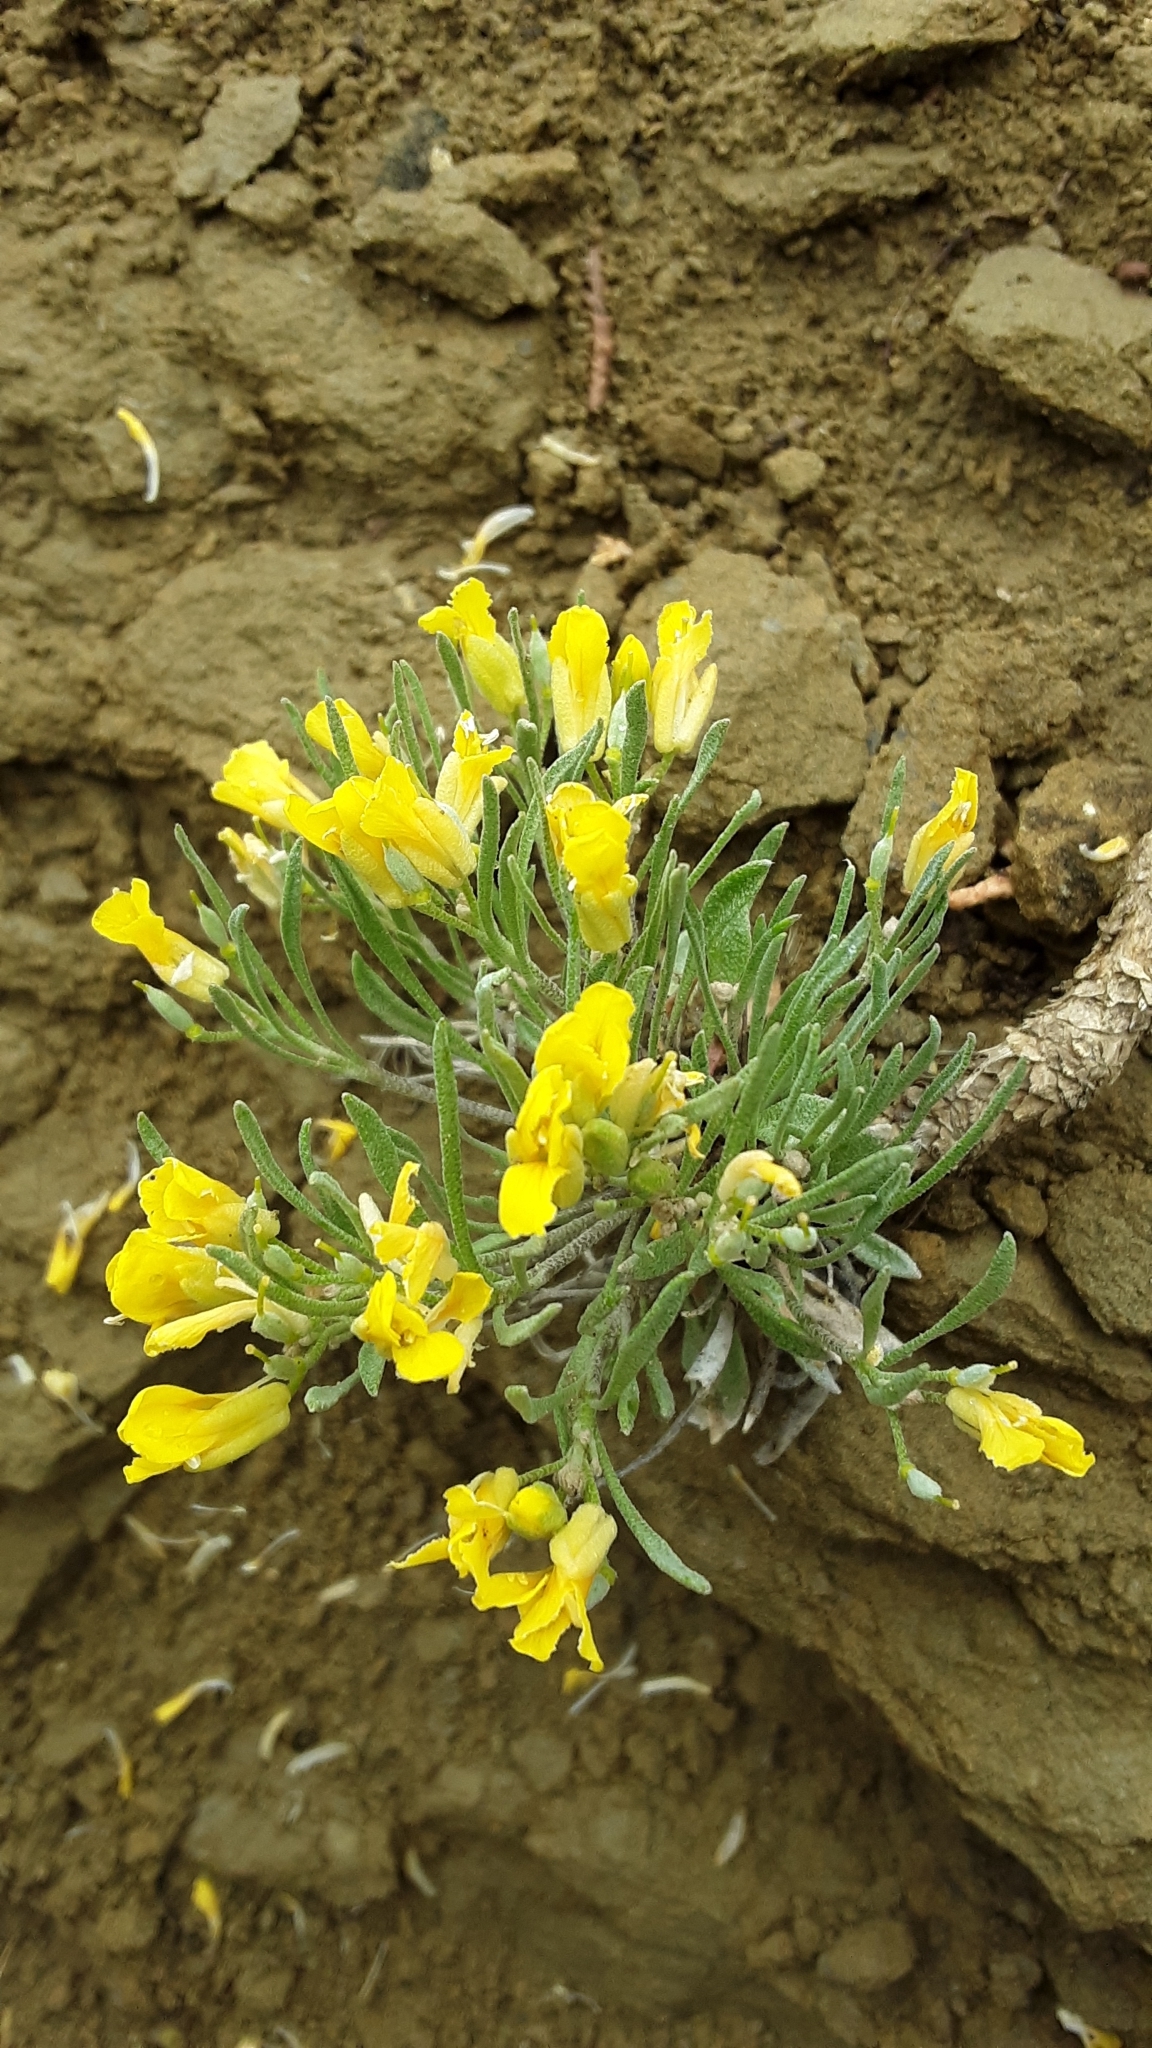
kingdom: Plantae
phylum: Tracheophyta
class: Magnoliopsida
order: Brassicales
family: Brassicaceae
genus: Physaria
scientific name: Physaria spatulata
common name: Alpine bladderpod
